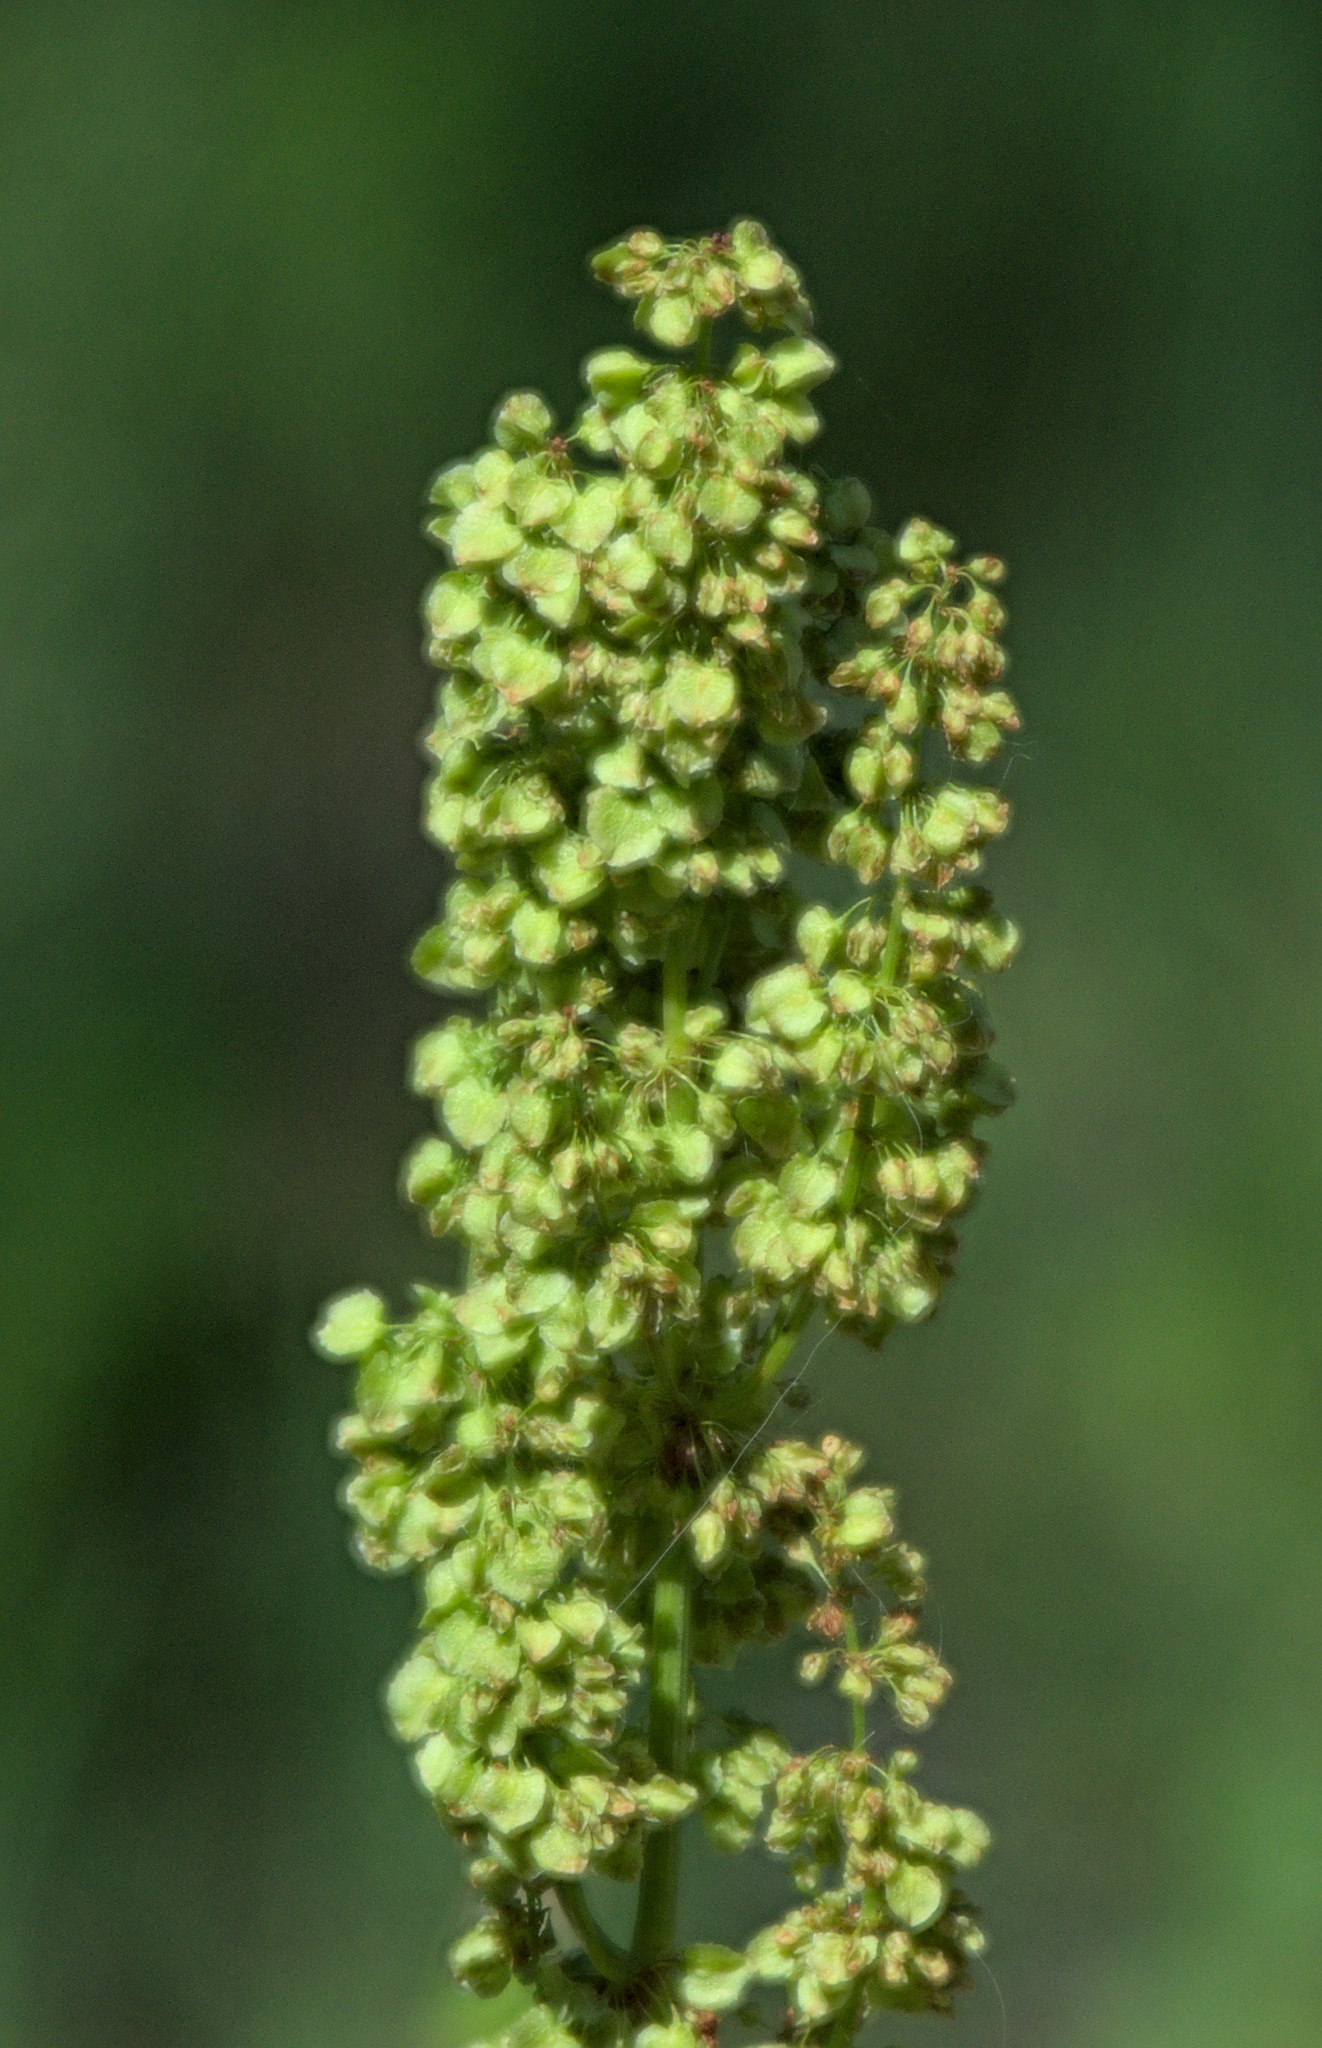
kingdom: Plantae
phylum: Tracheophyta
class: Magnoliopsida
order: Caryophyllales
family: Polygonaceae
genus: Rumex
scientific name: Rumex confertus
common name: Russian dock
